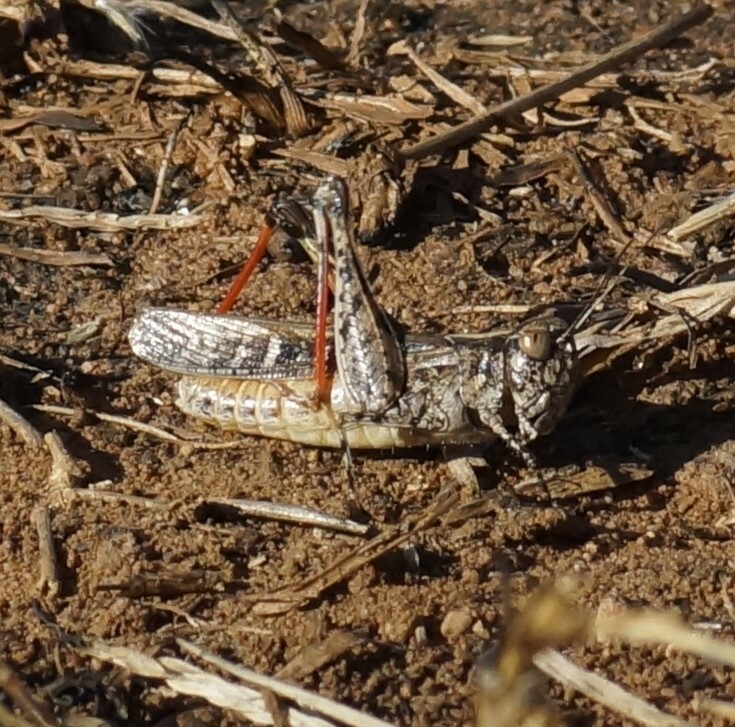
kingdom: Animalia
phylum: Arthropoda
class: Insecta
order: Orthoptera
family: Acrididae
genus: Heteropternis
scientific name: Heteropternis obscurella
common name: Long-legged bandwing
